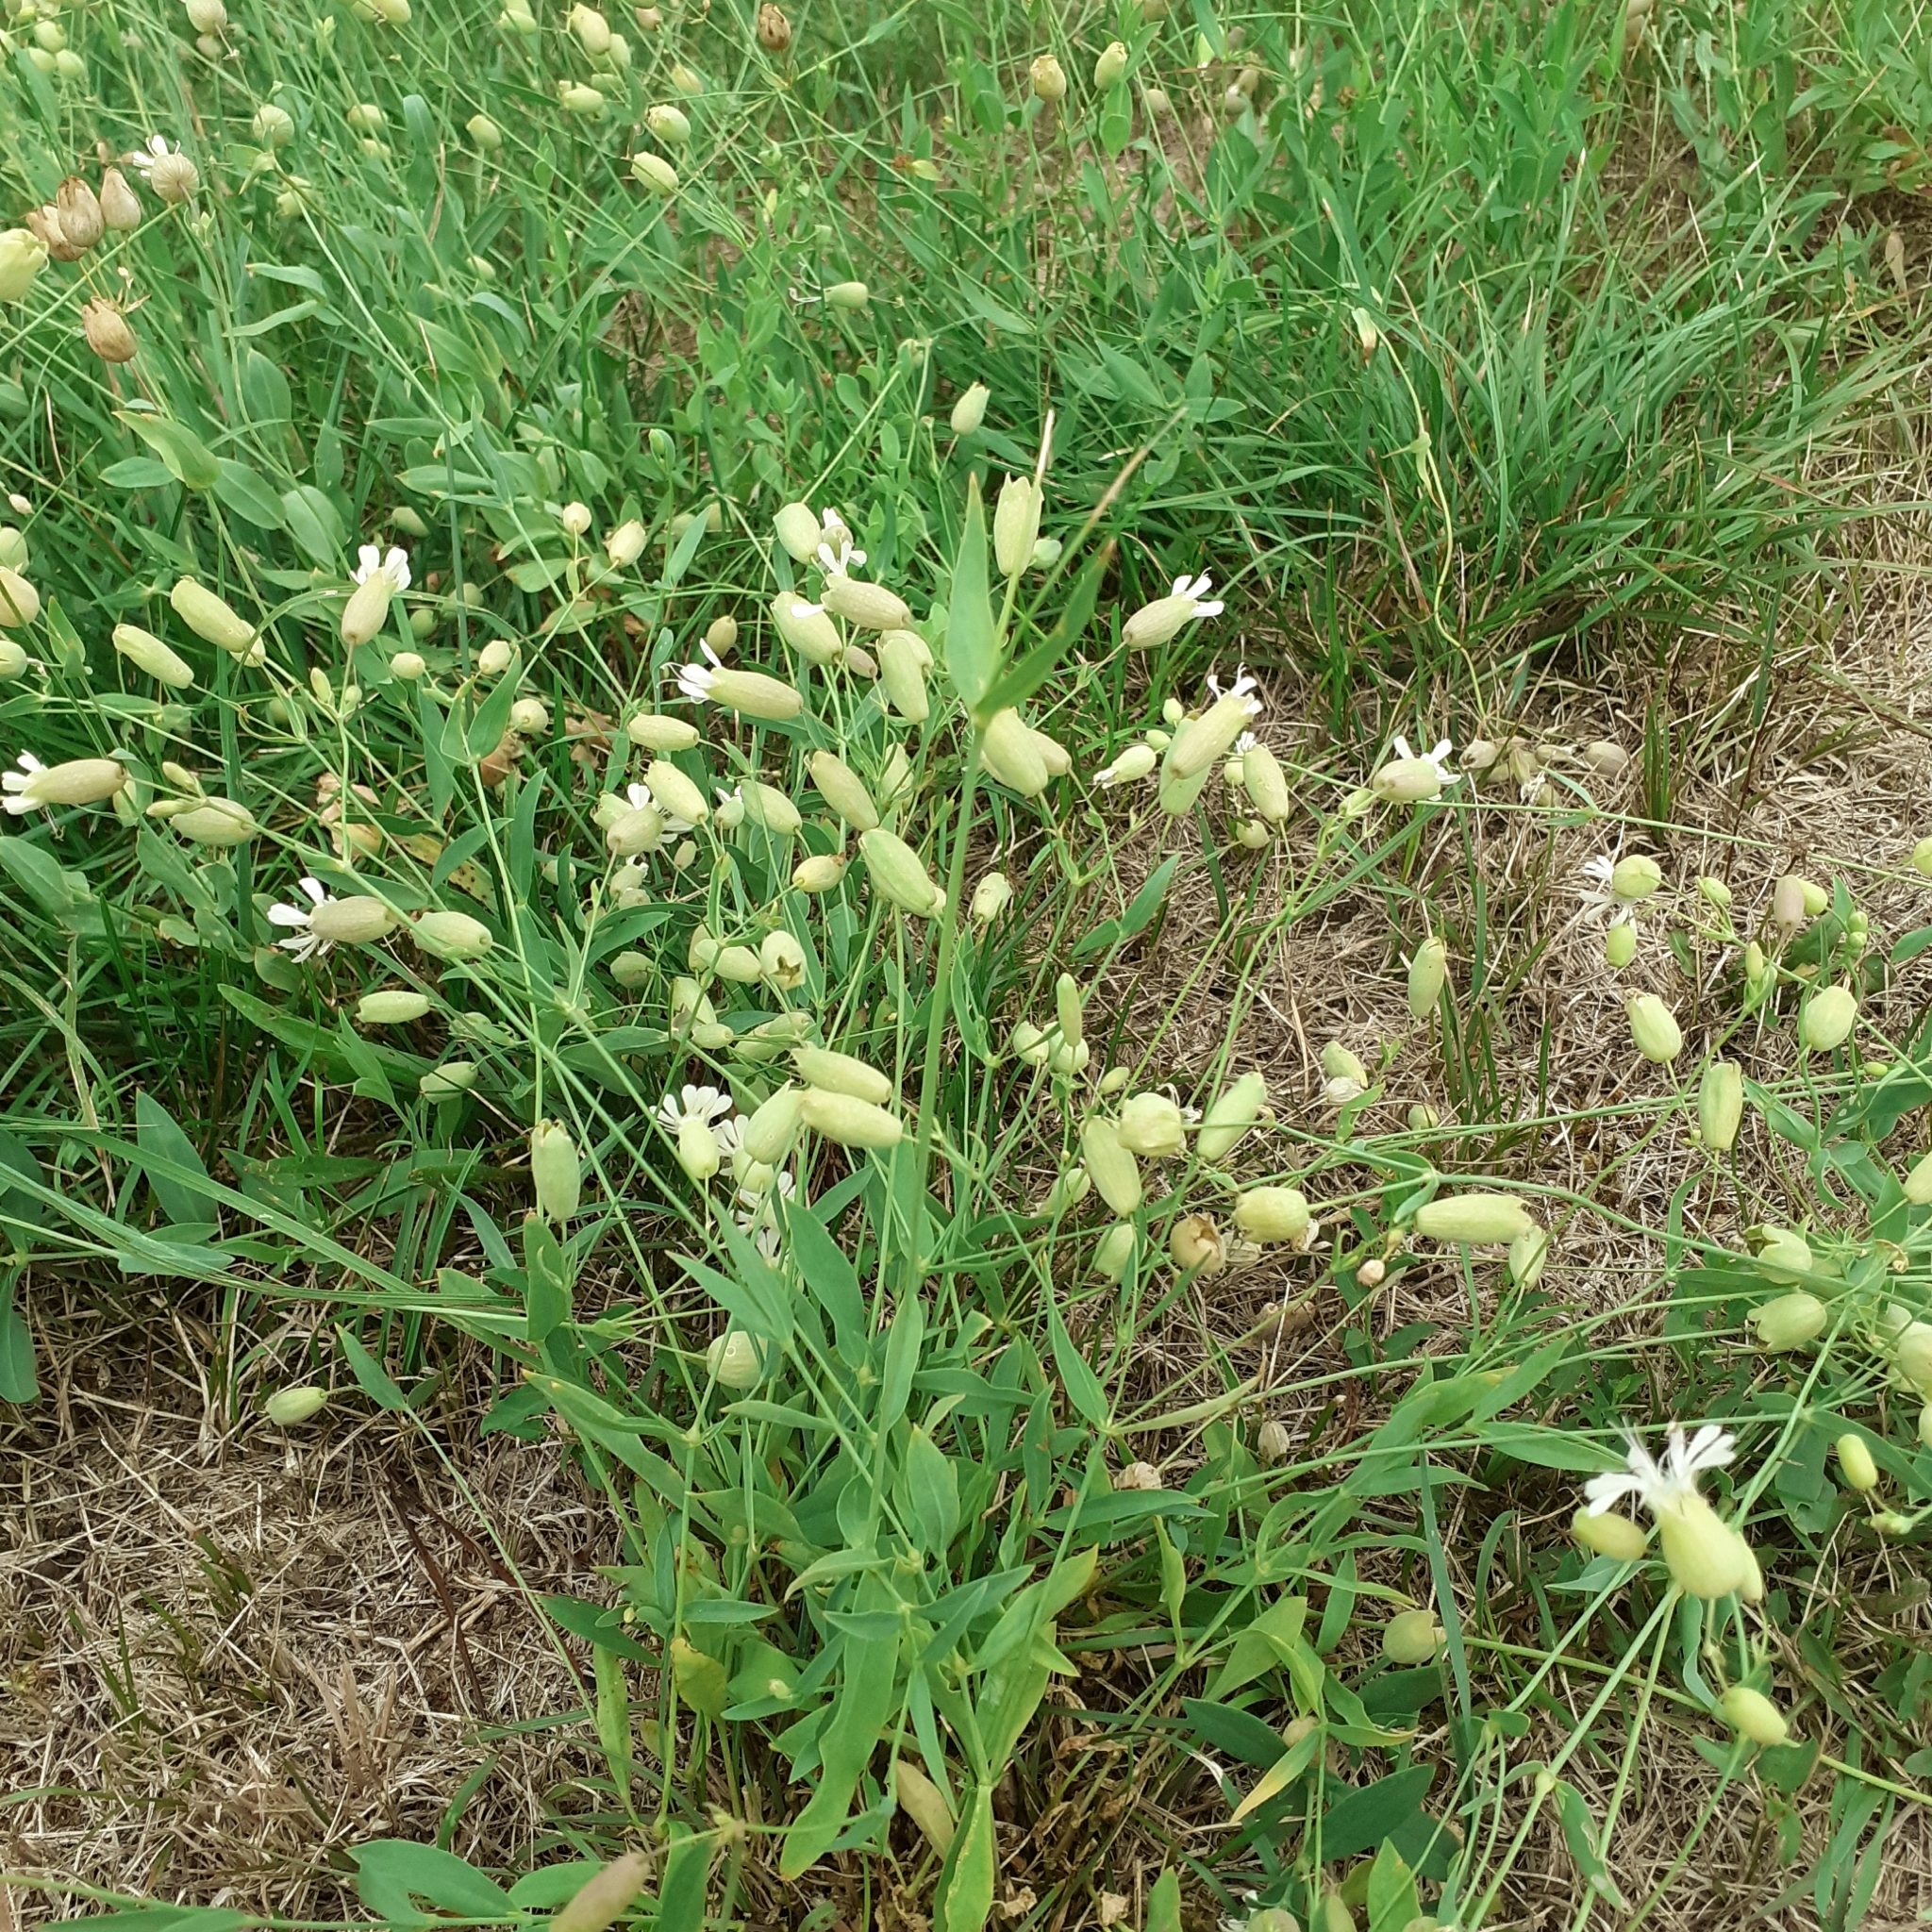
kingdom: Plantae
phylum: Tracheophyta
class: Magnoliopsida
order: Caryophyllales
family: Caryophyllaceae
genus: Silene
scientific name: Silene vulgaris
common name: Bladder campion
